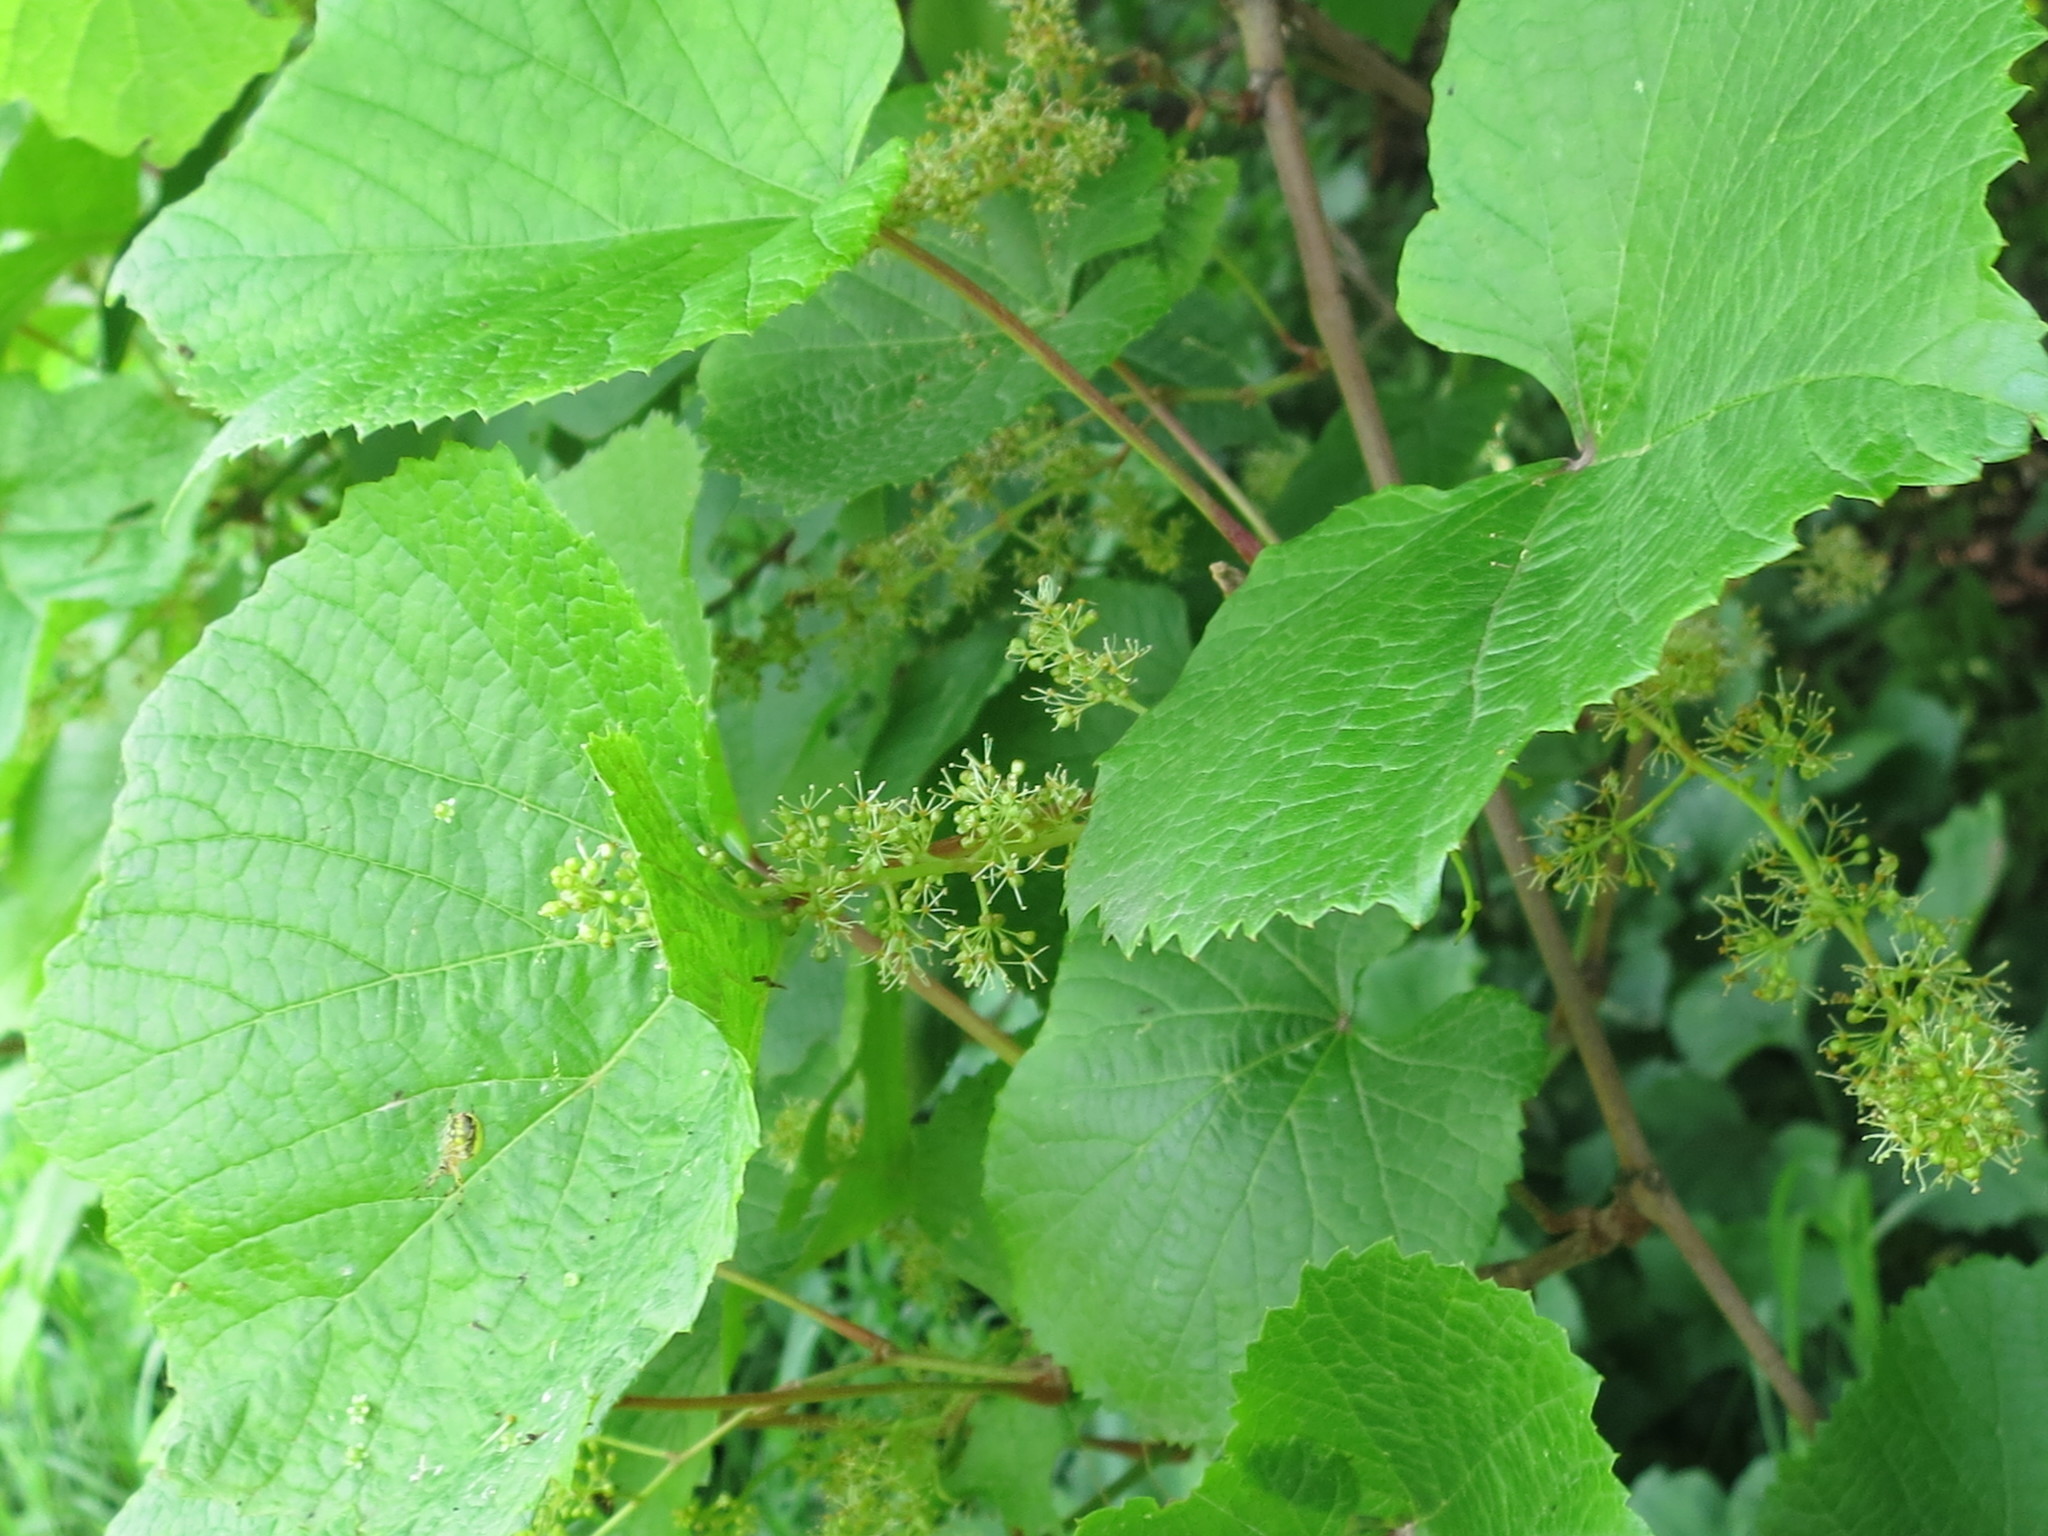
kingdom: Plantae
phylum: Tracheophyta
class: Magnoliopsida
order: Vitales
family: Vitaceae
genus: Vitis
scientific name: Vitis amurensis
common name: Amur grape
